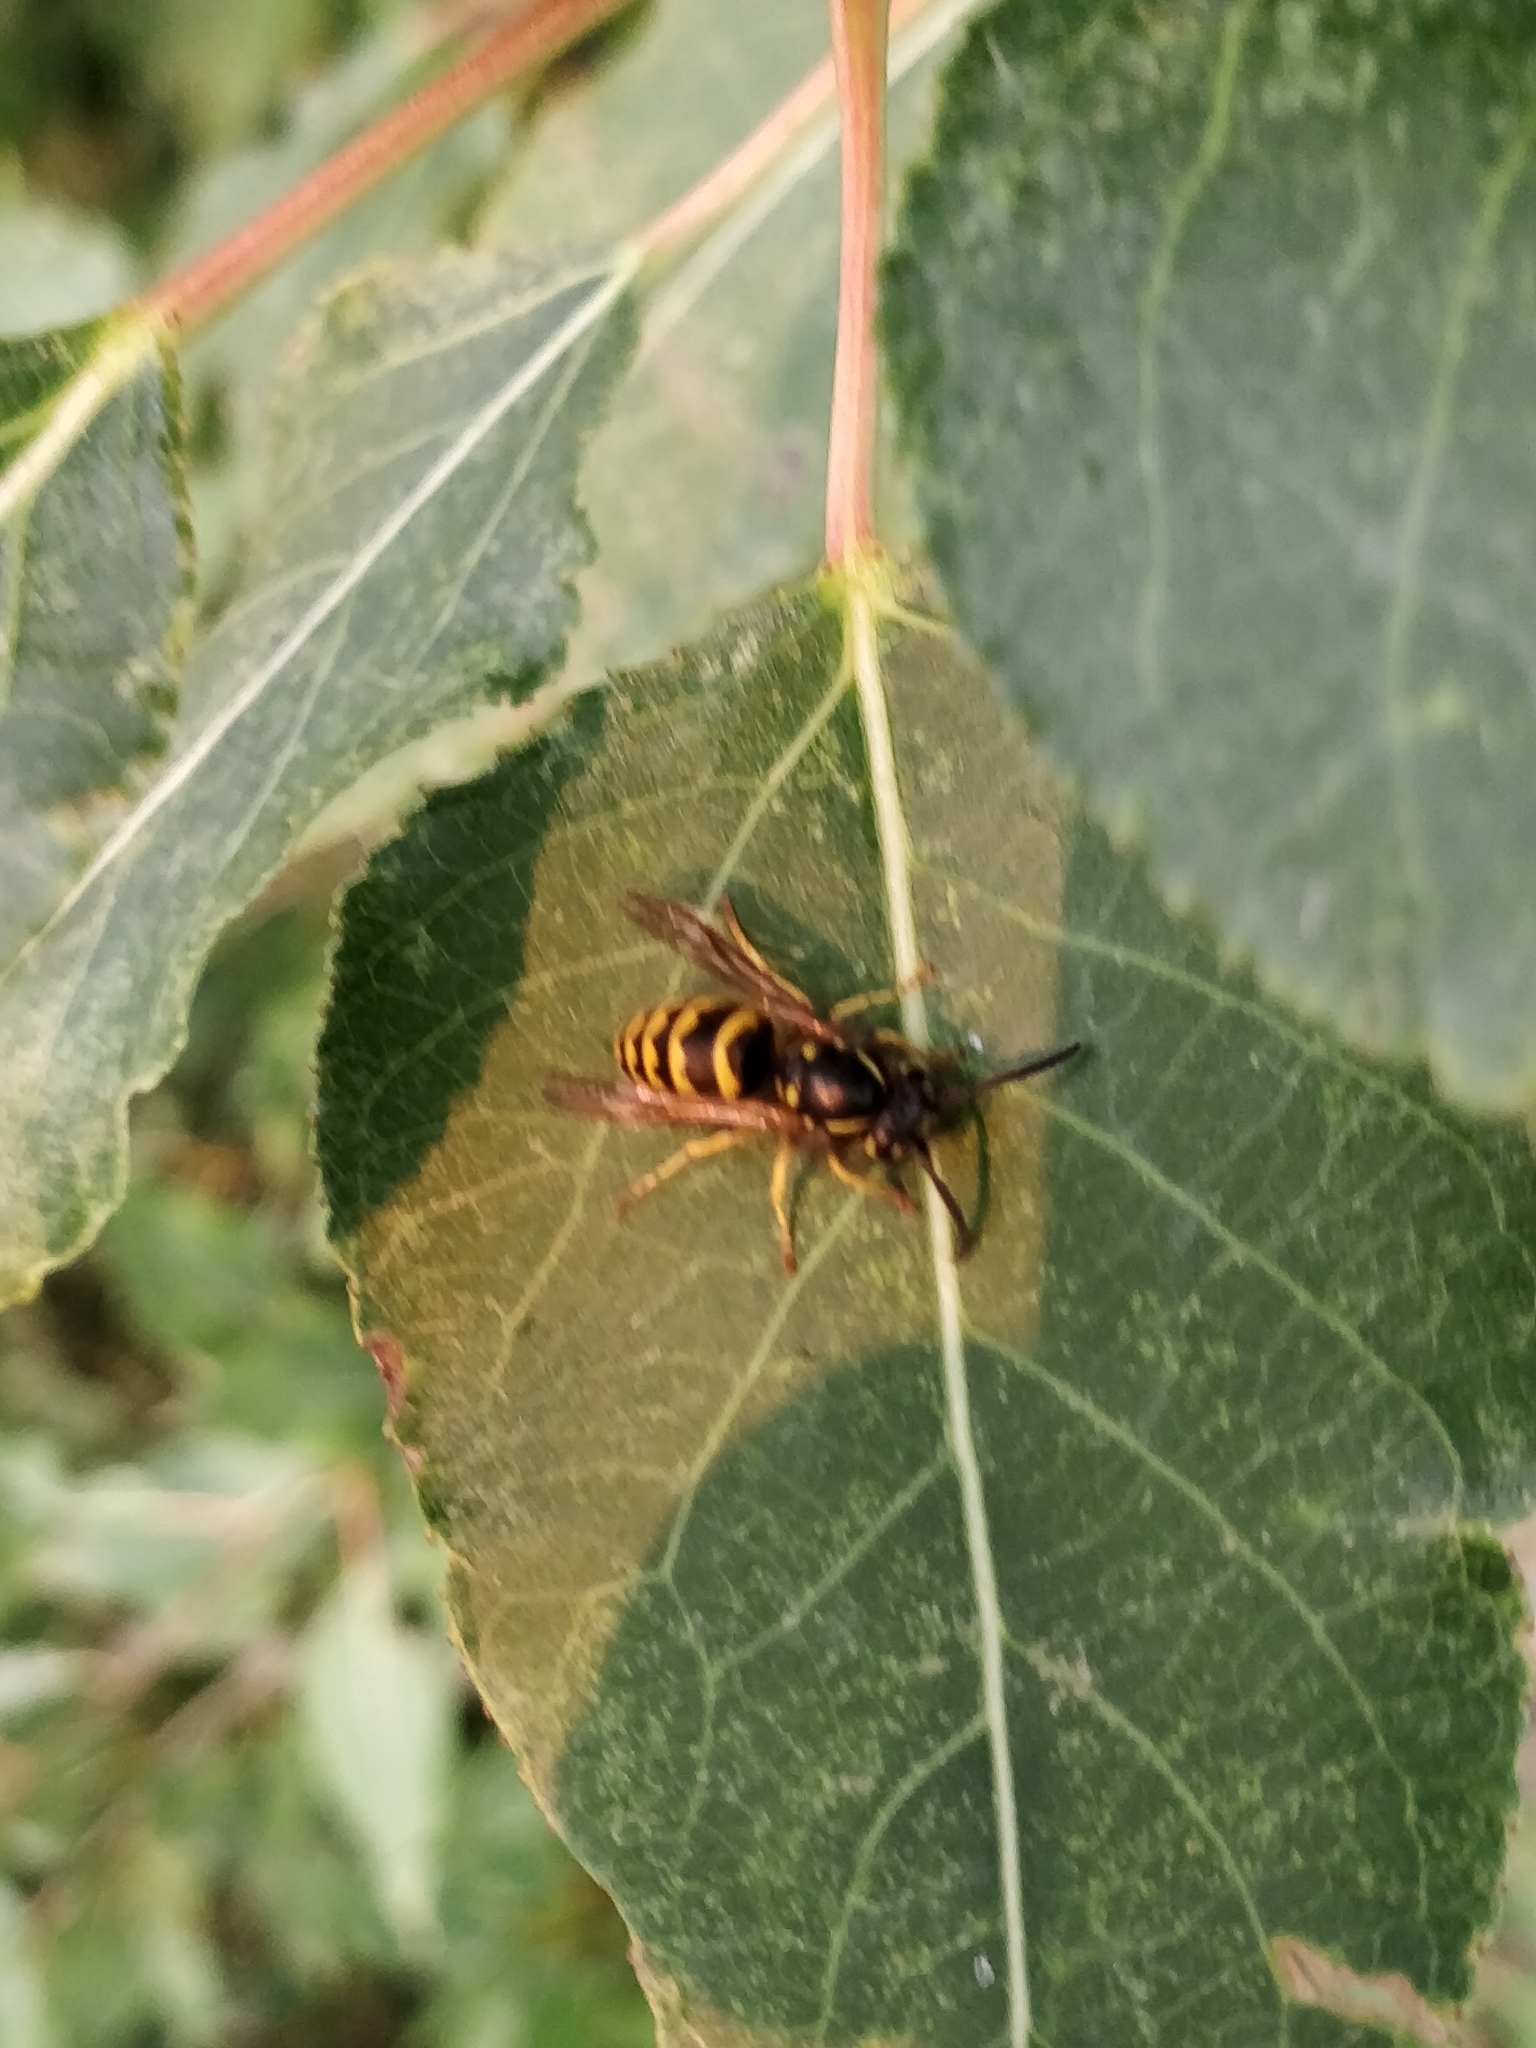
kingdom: Animalia
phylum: Arthropoda
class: Insecta
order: Hymenoptera
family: Vespidae
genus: Vespula
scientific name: Vespula alascensis
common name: Alaska yellowjacket
